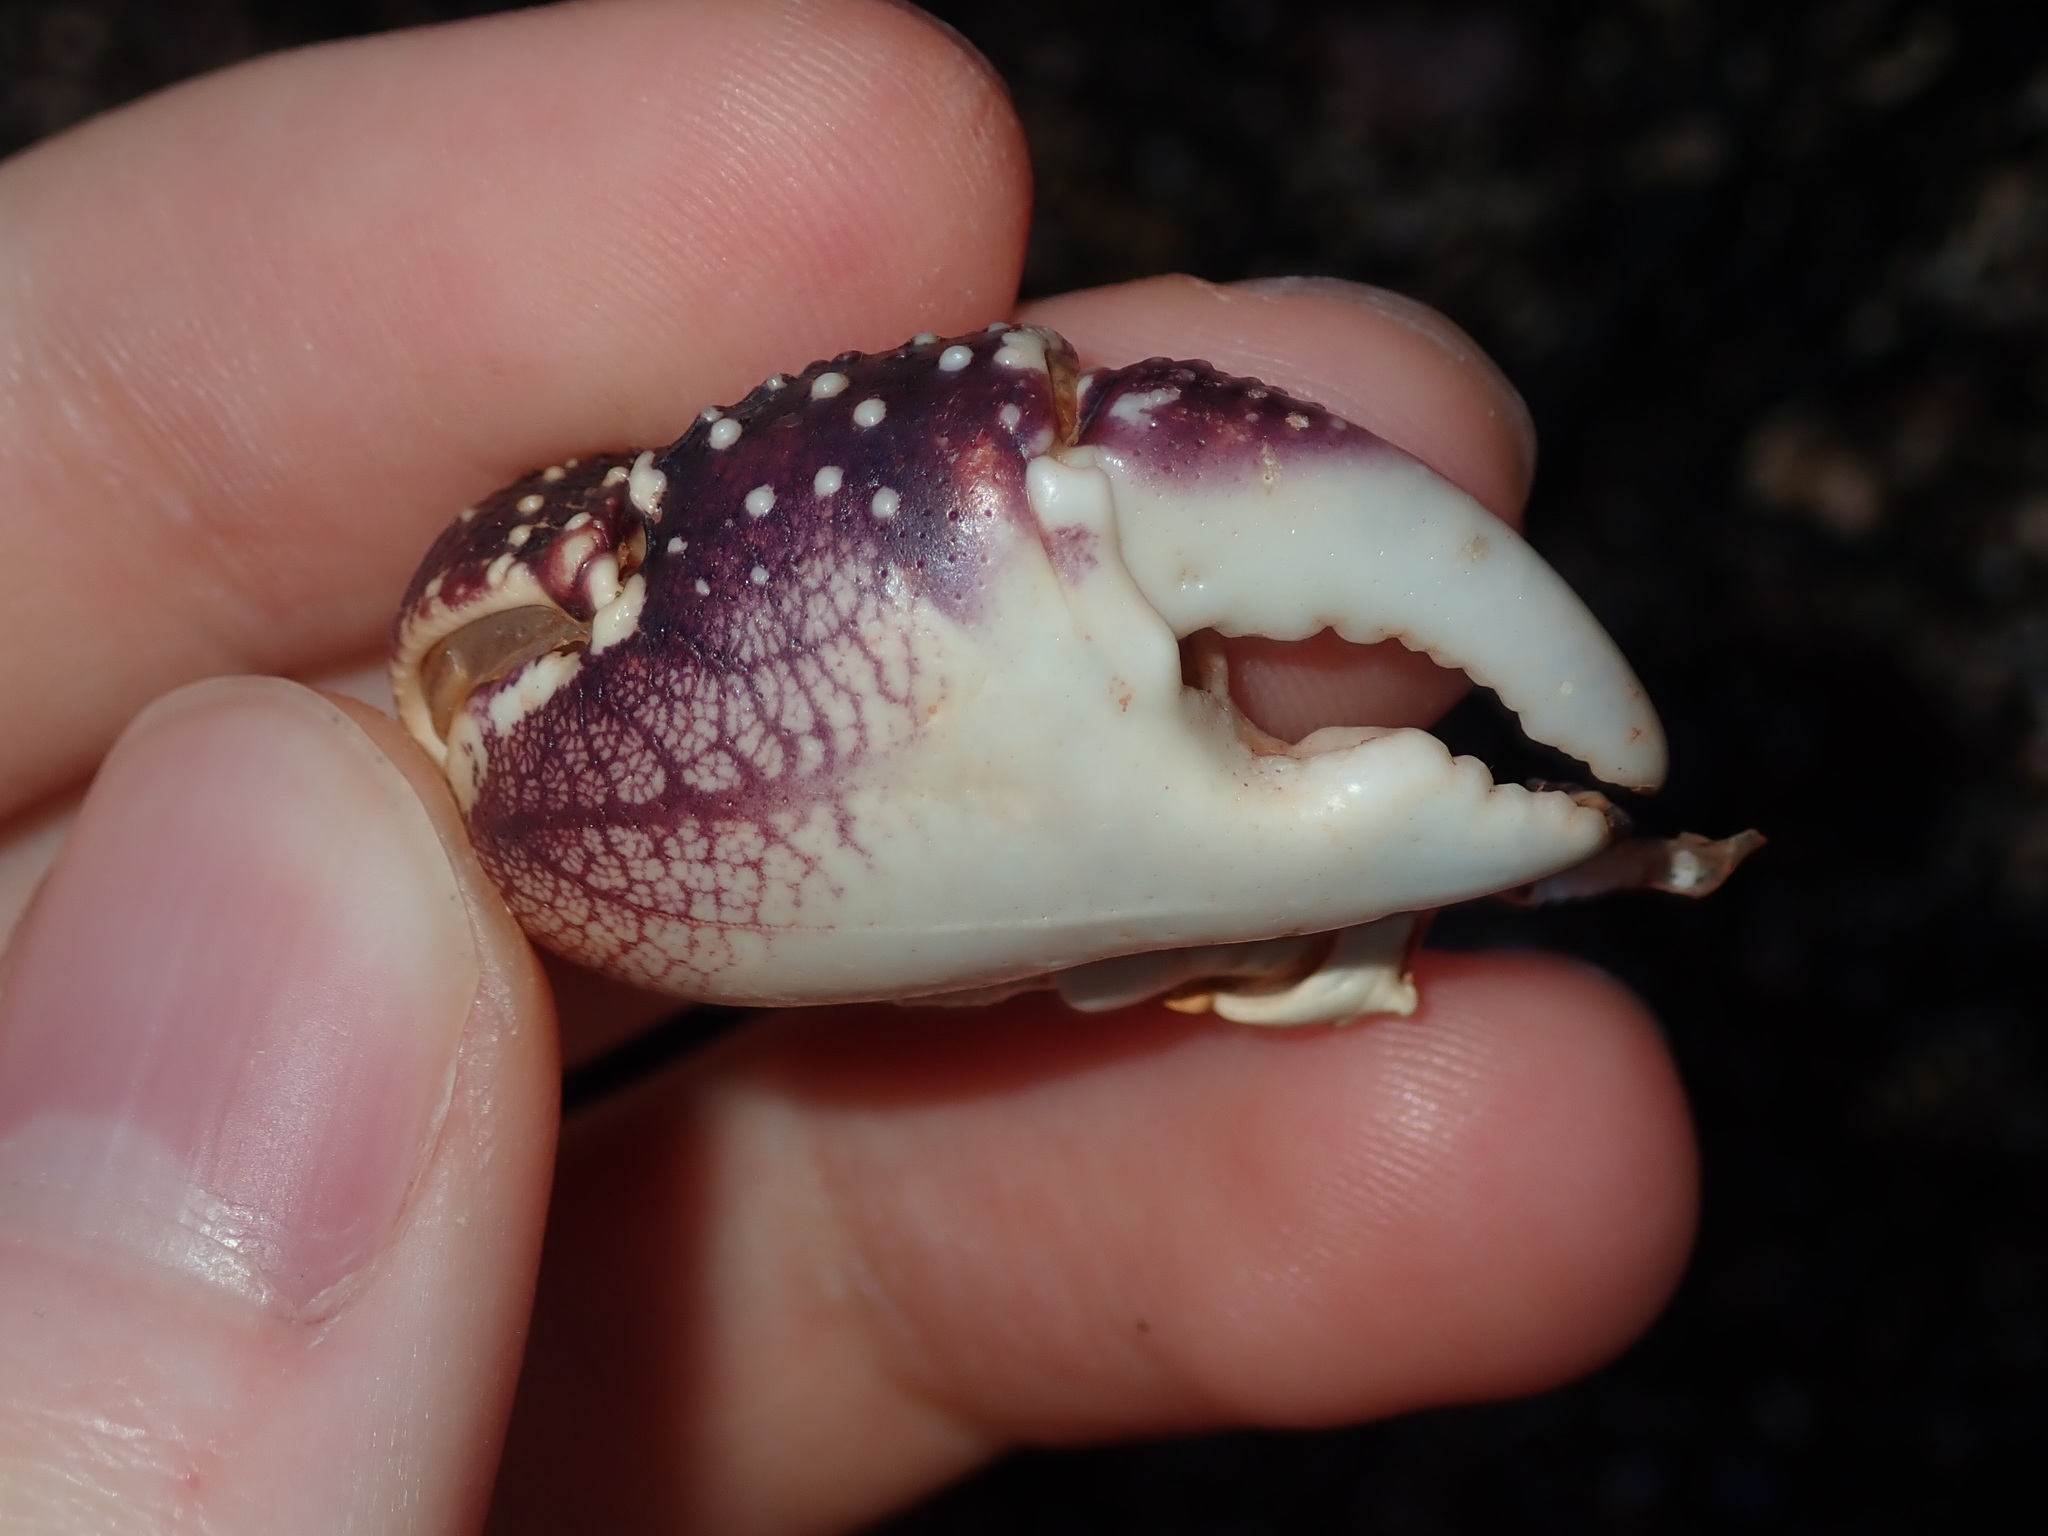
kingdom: Animalia
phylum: Arthropoda
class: Malacostraca
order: Decapoda
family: Grapsidae
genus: Leptograpsus
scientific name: Leptograpsus variegatus
